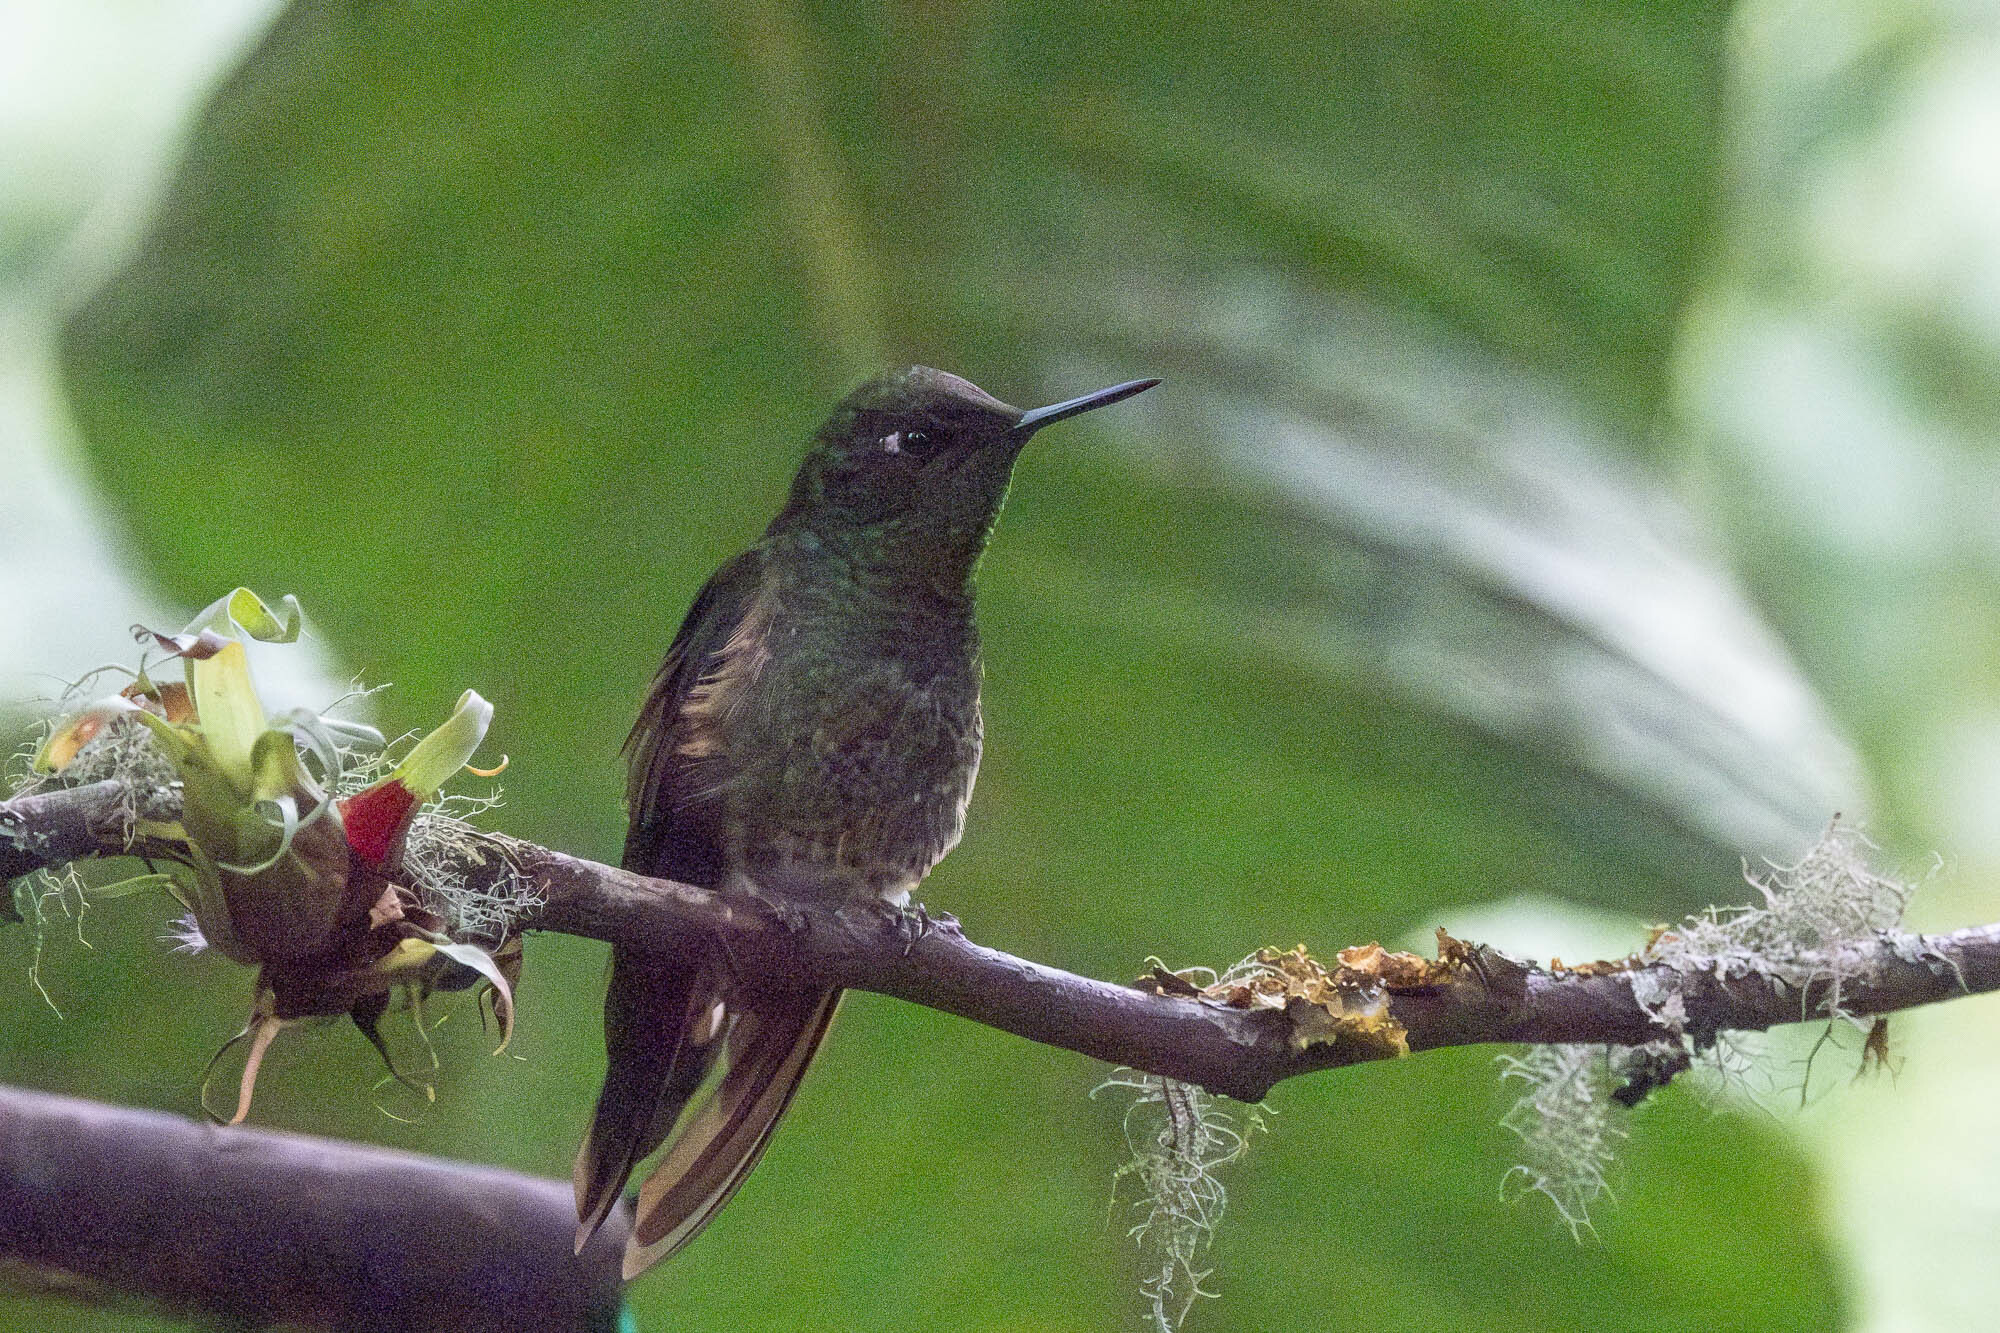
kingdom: Animalia
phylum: Chordata
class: Aves
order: Apodiformes
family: Trochilidae
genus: Boissonneaua
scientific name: Boissonneaua flavescens
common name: Buff-tailed coronet
